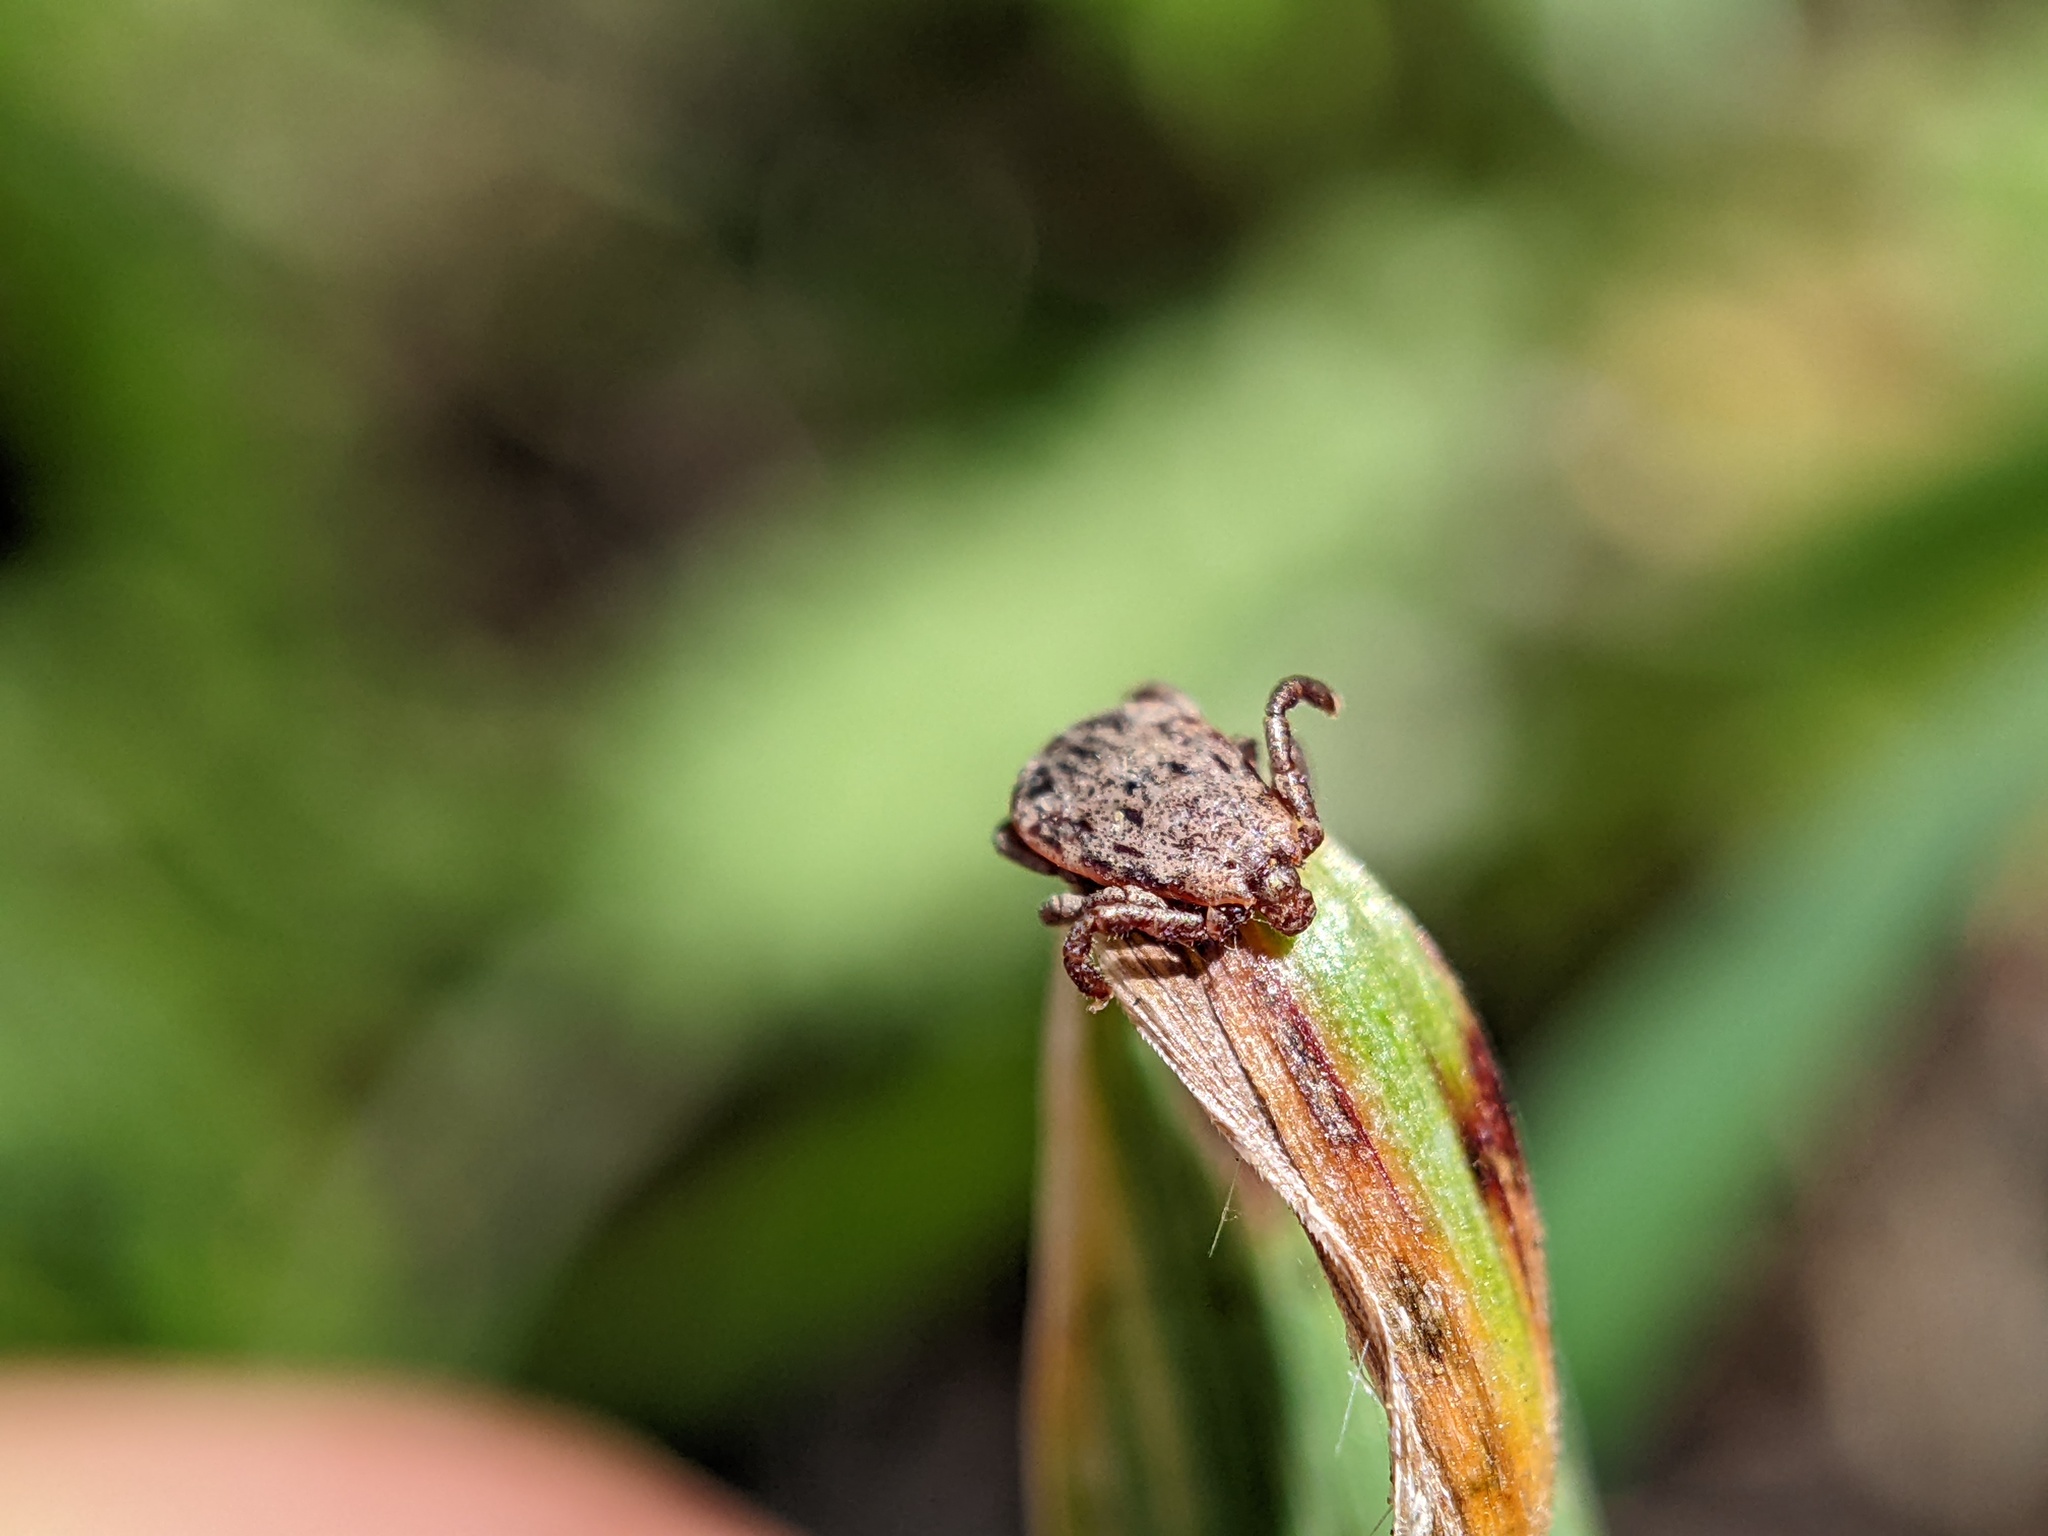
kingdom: Animalia
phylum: Arthropoda
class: Arachnida
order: Ixodida
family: Ixodidae
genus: Dermacentor
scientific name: Dermacentor occidentalis
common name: Net tick
